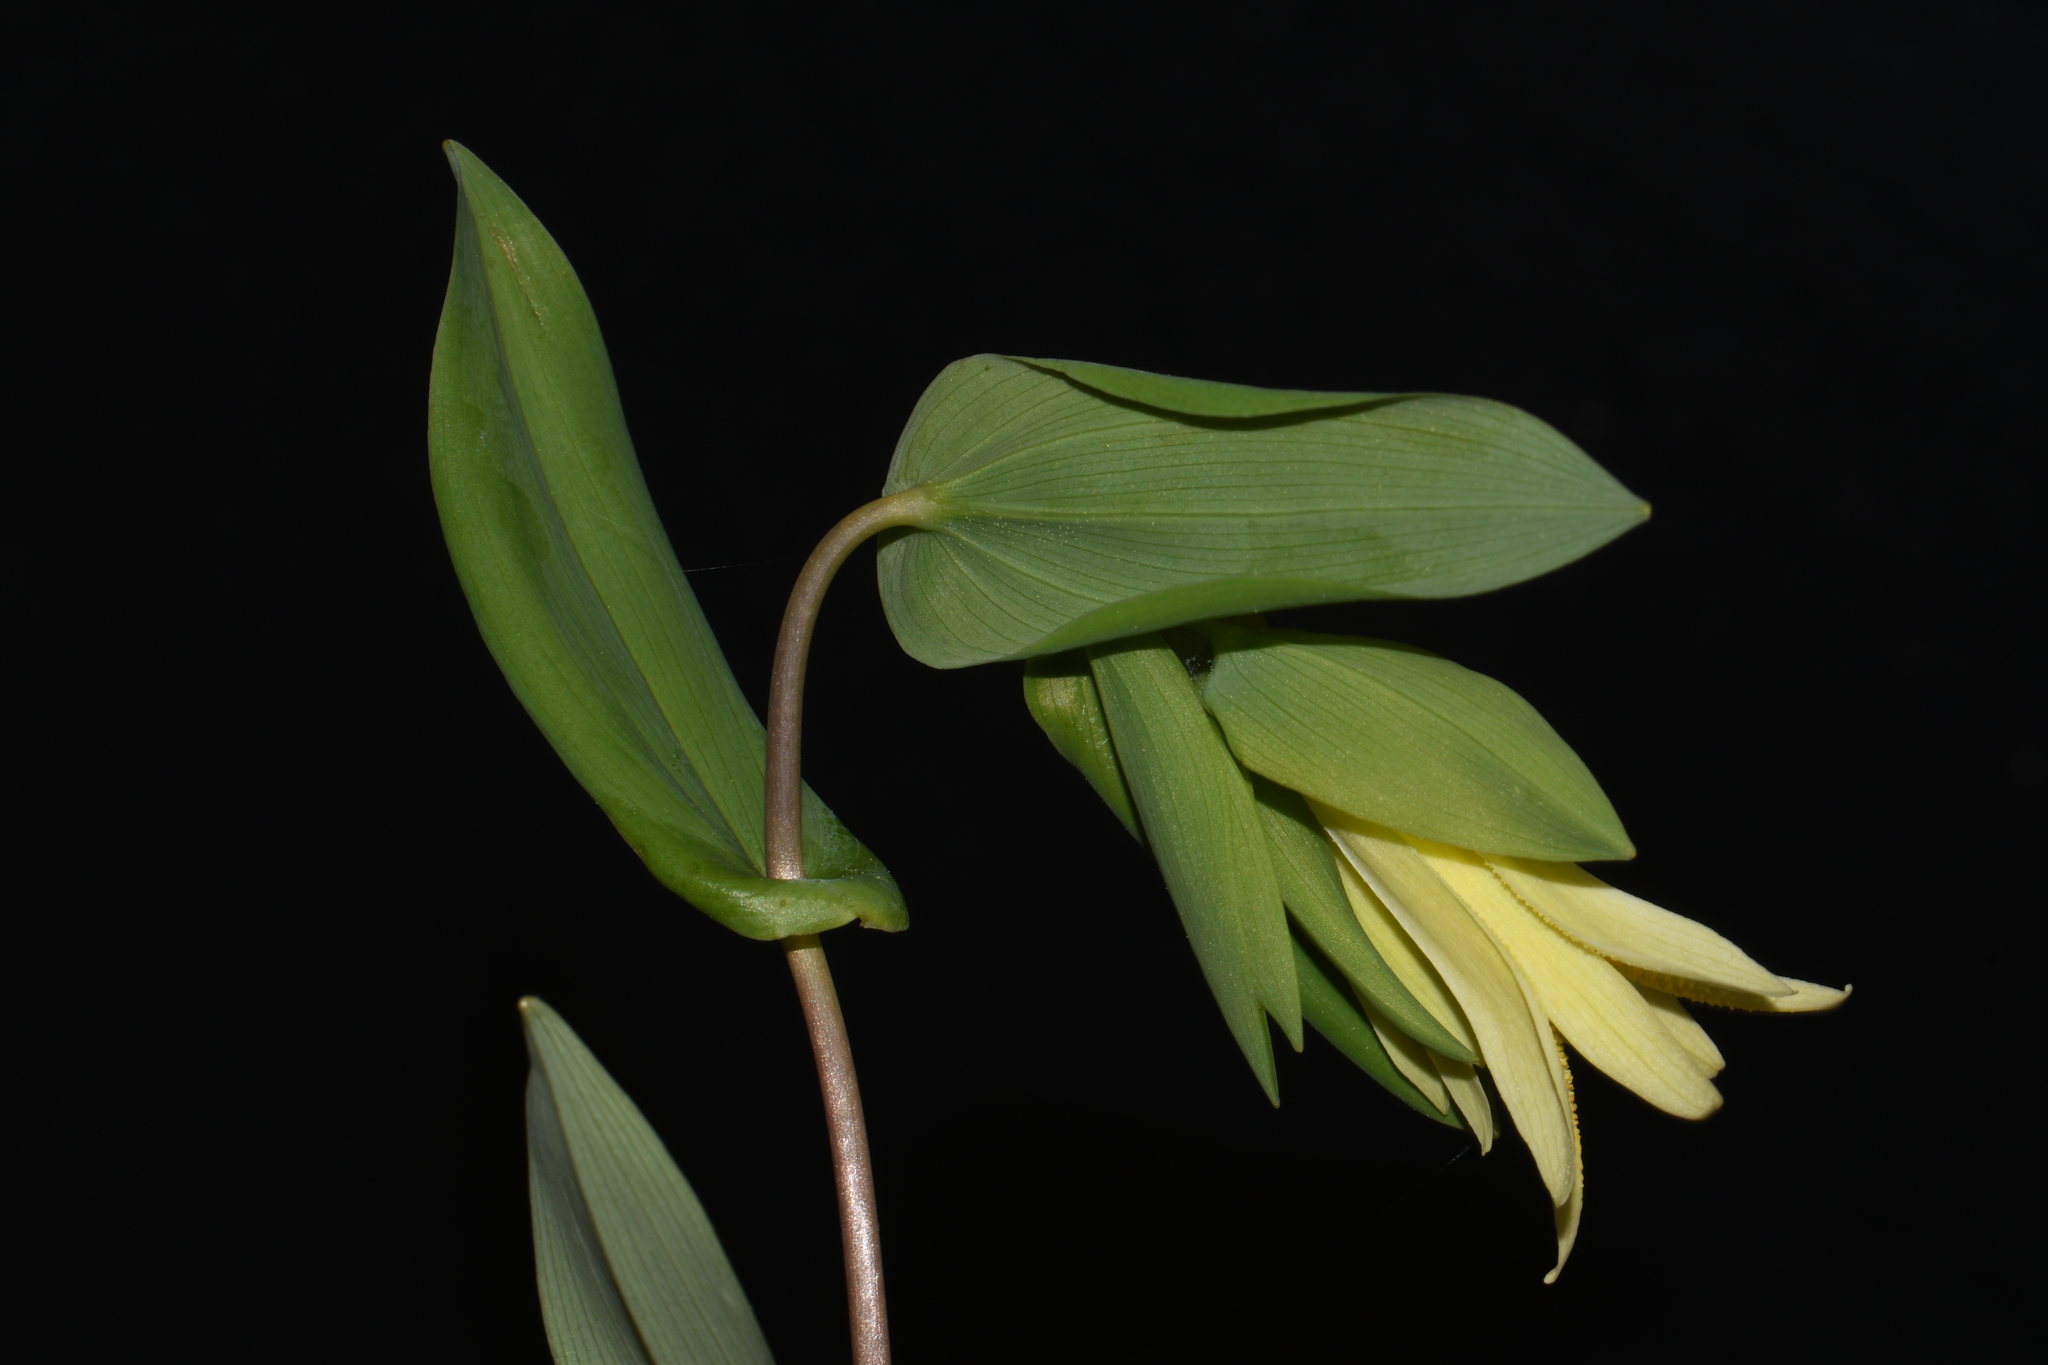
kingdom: Plantae
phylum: Tracheophyta
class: Liliopsida
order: Liliales
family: Colchicaceae
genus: Uvularia
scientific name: Uvularia perfoliata
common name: Perfoliate bellwort
